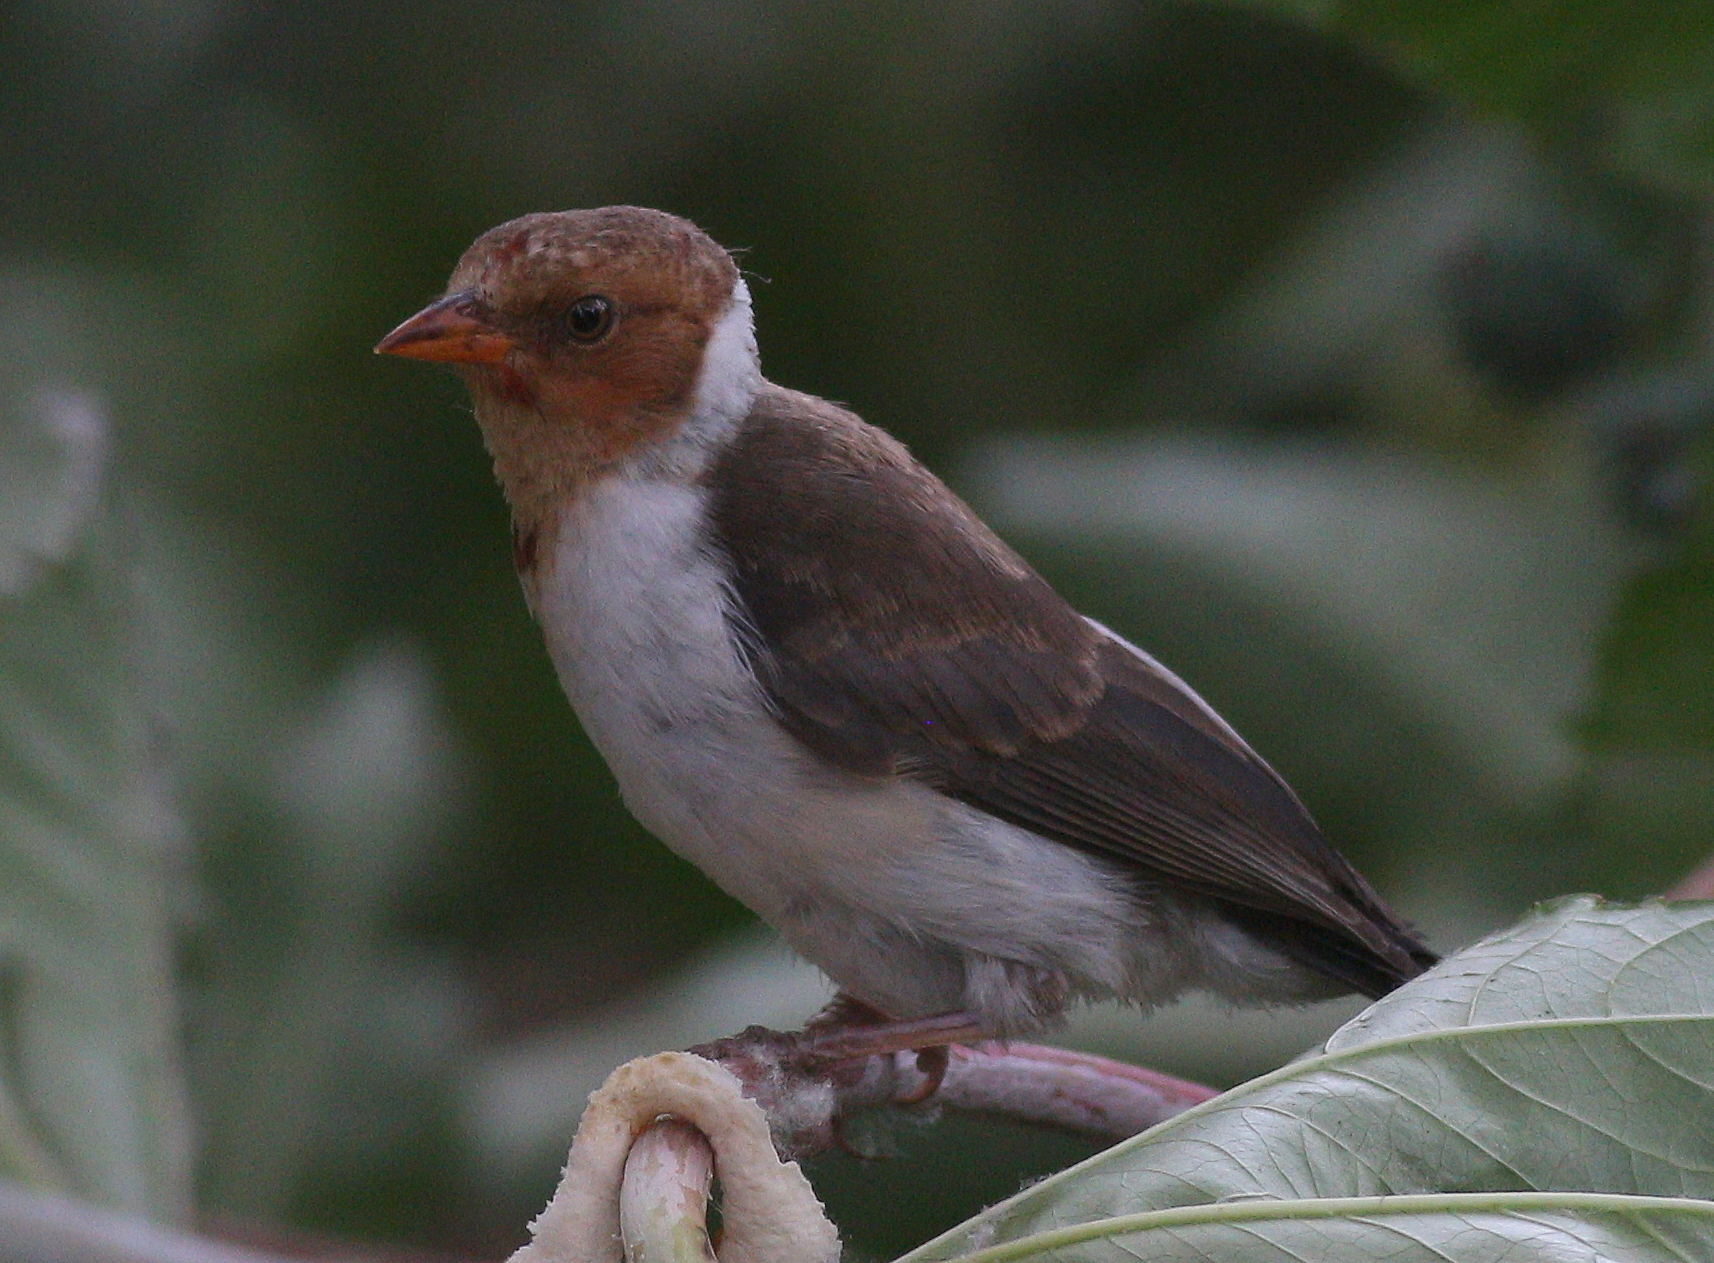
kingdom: Animalia
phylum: Chordata
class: Aves
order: Passeriformes
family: Thraupidae
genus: Paroaria
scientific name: Paroaria capitata
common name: Yellow-billed cardinal
